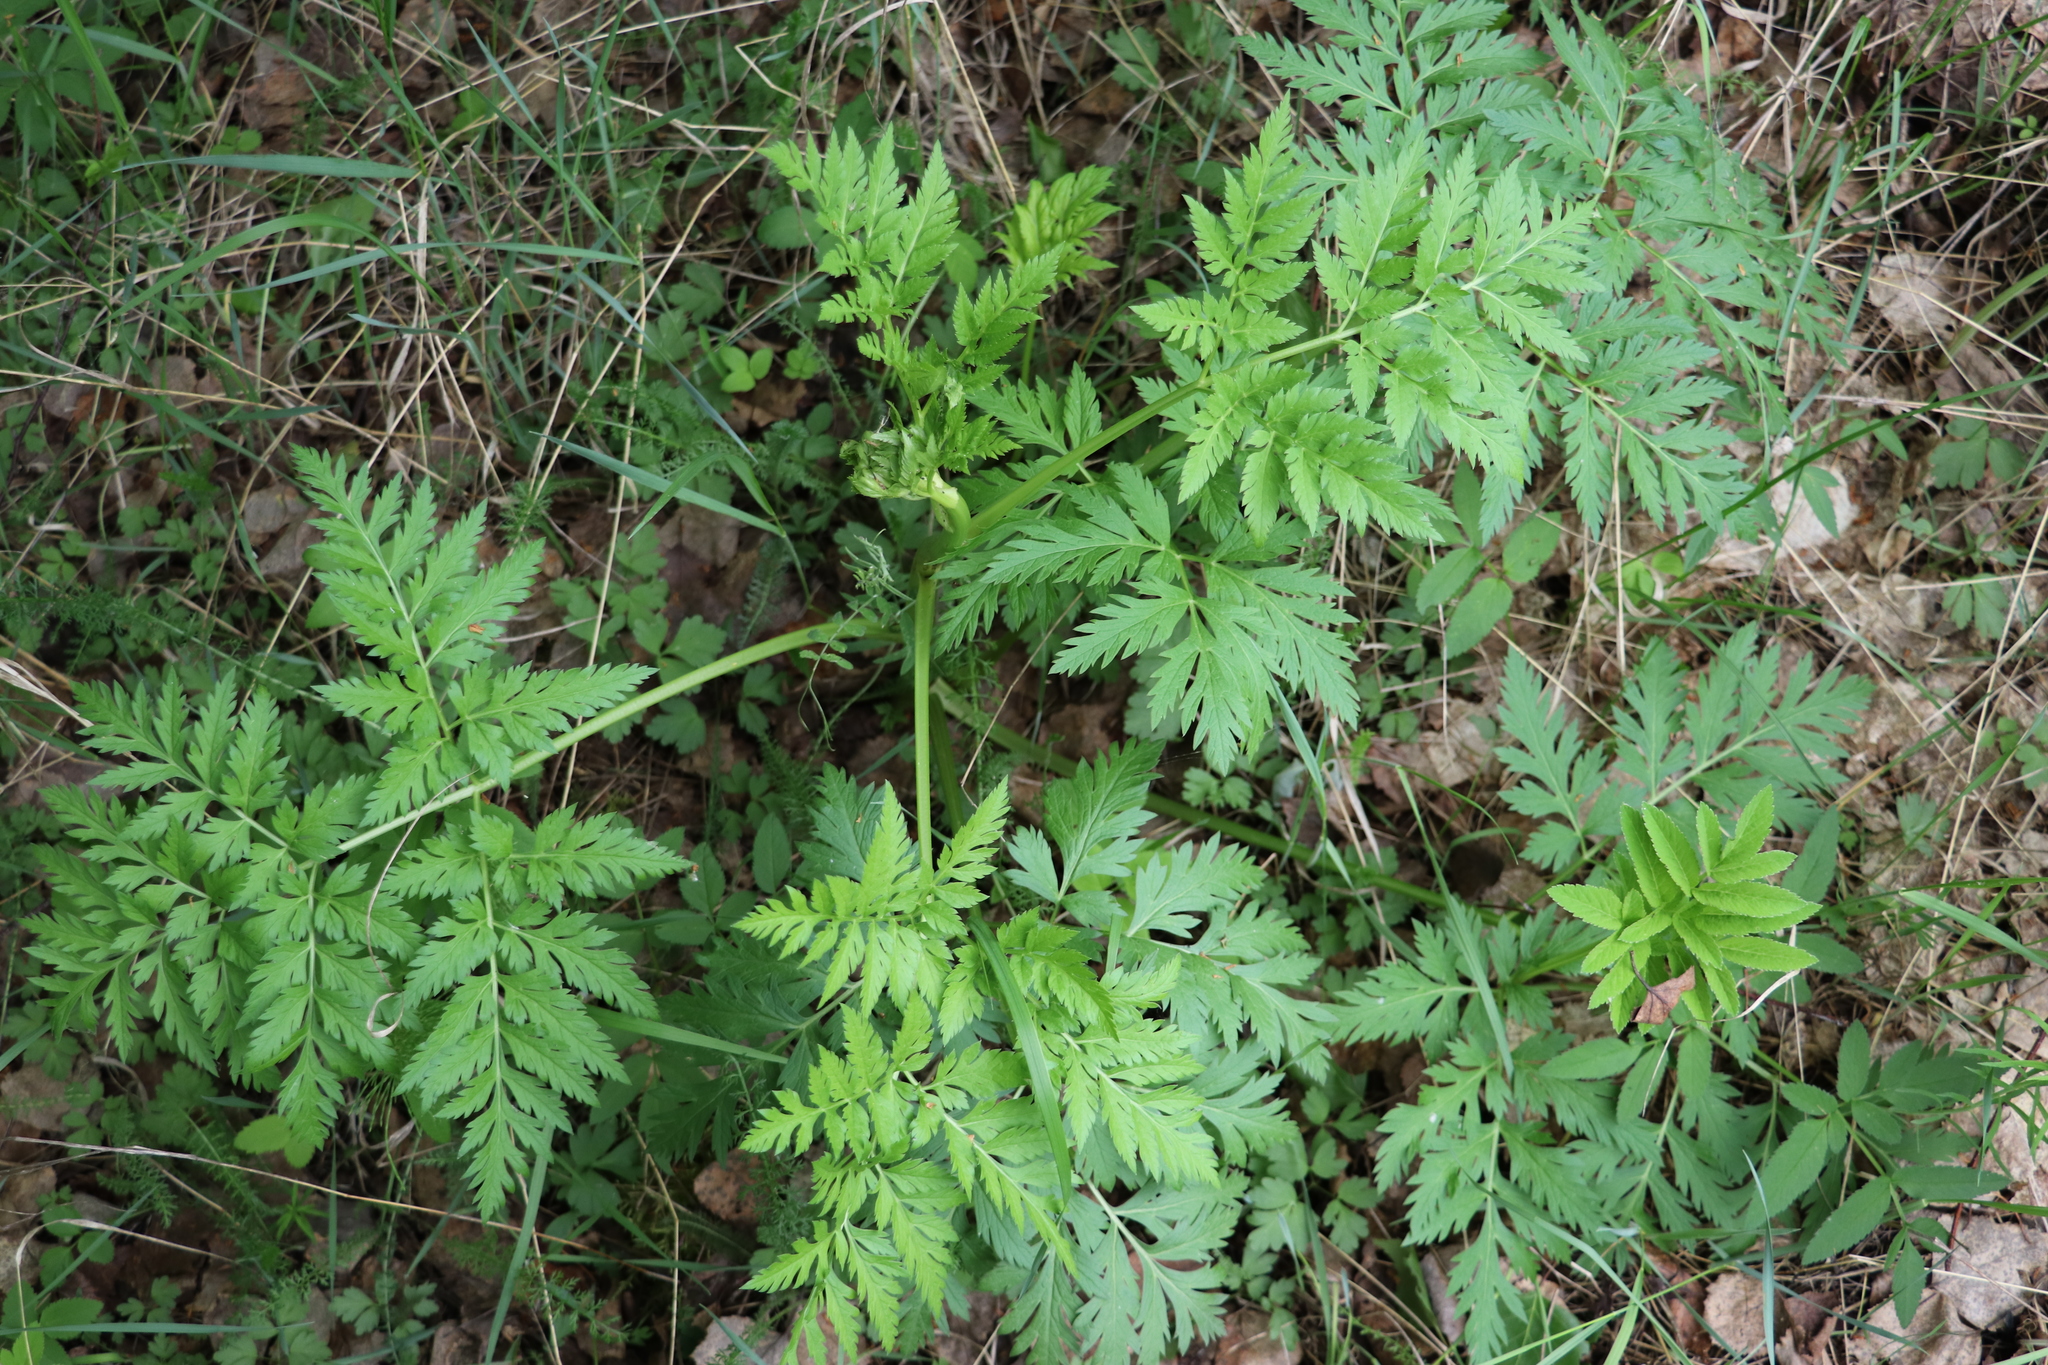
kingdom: Plantae
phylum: Tracheophyta
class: Magnoliopsida
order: Apiales
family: Apiaceae
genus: Anthriscus
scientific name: Anthriscus sylvestris
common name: Cow parsley
